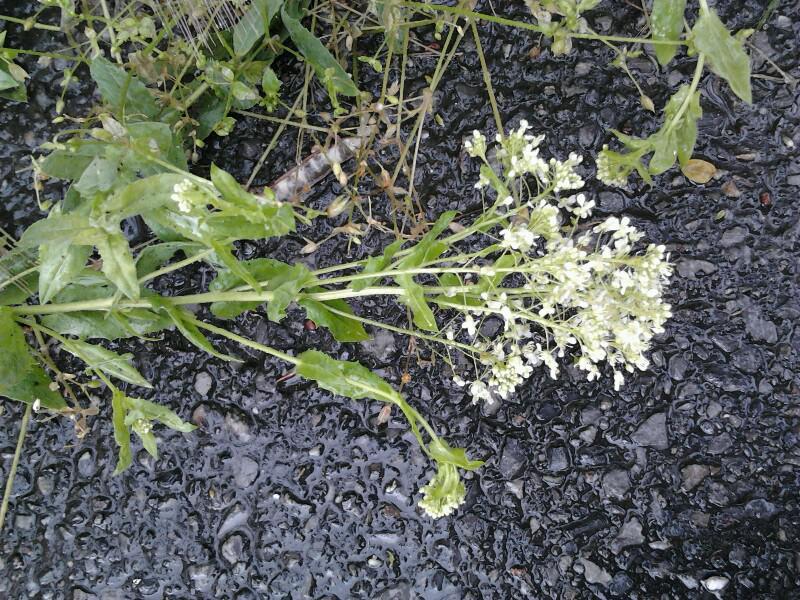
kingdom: Plantae
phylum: Tracheophyta
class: Magnoliopsida
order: Brassicales
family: Brassicaceae
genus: Lepidium
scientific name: Lepidium draba
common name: Hoary cress
